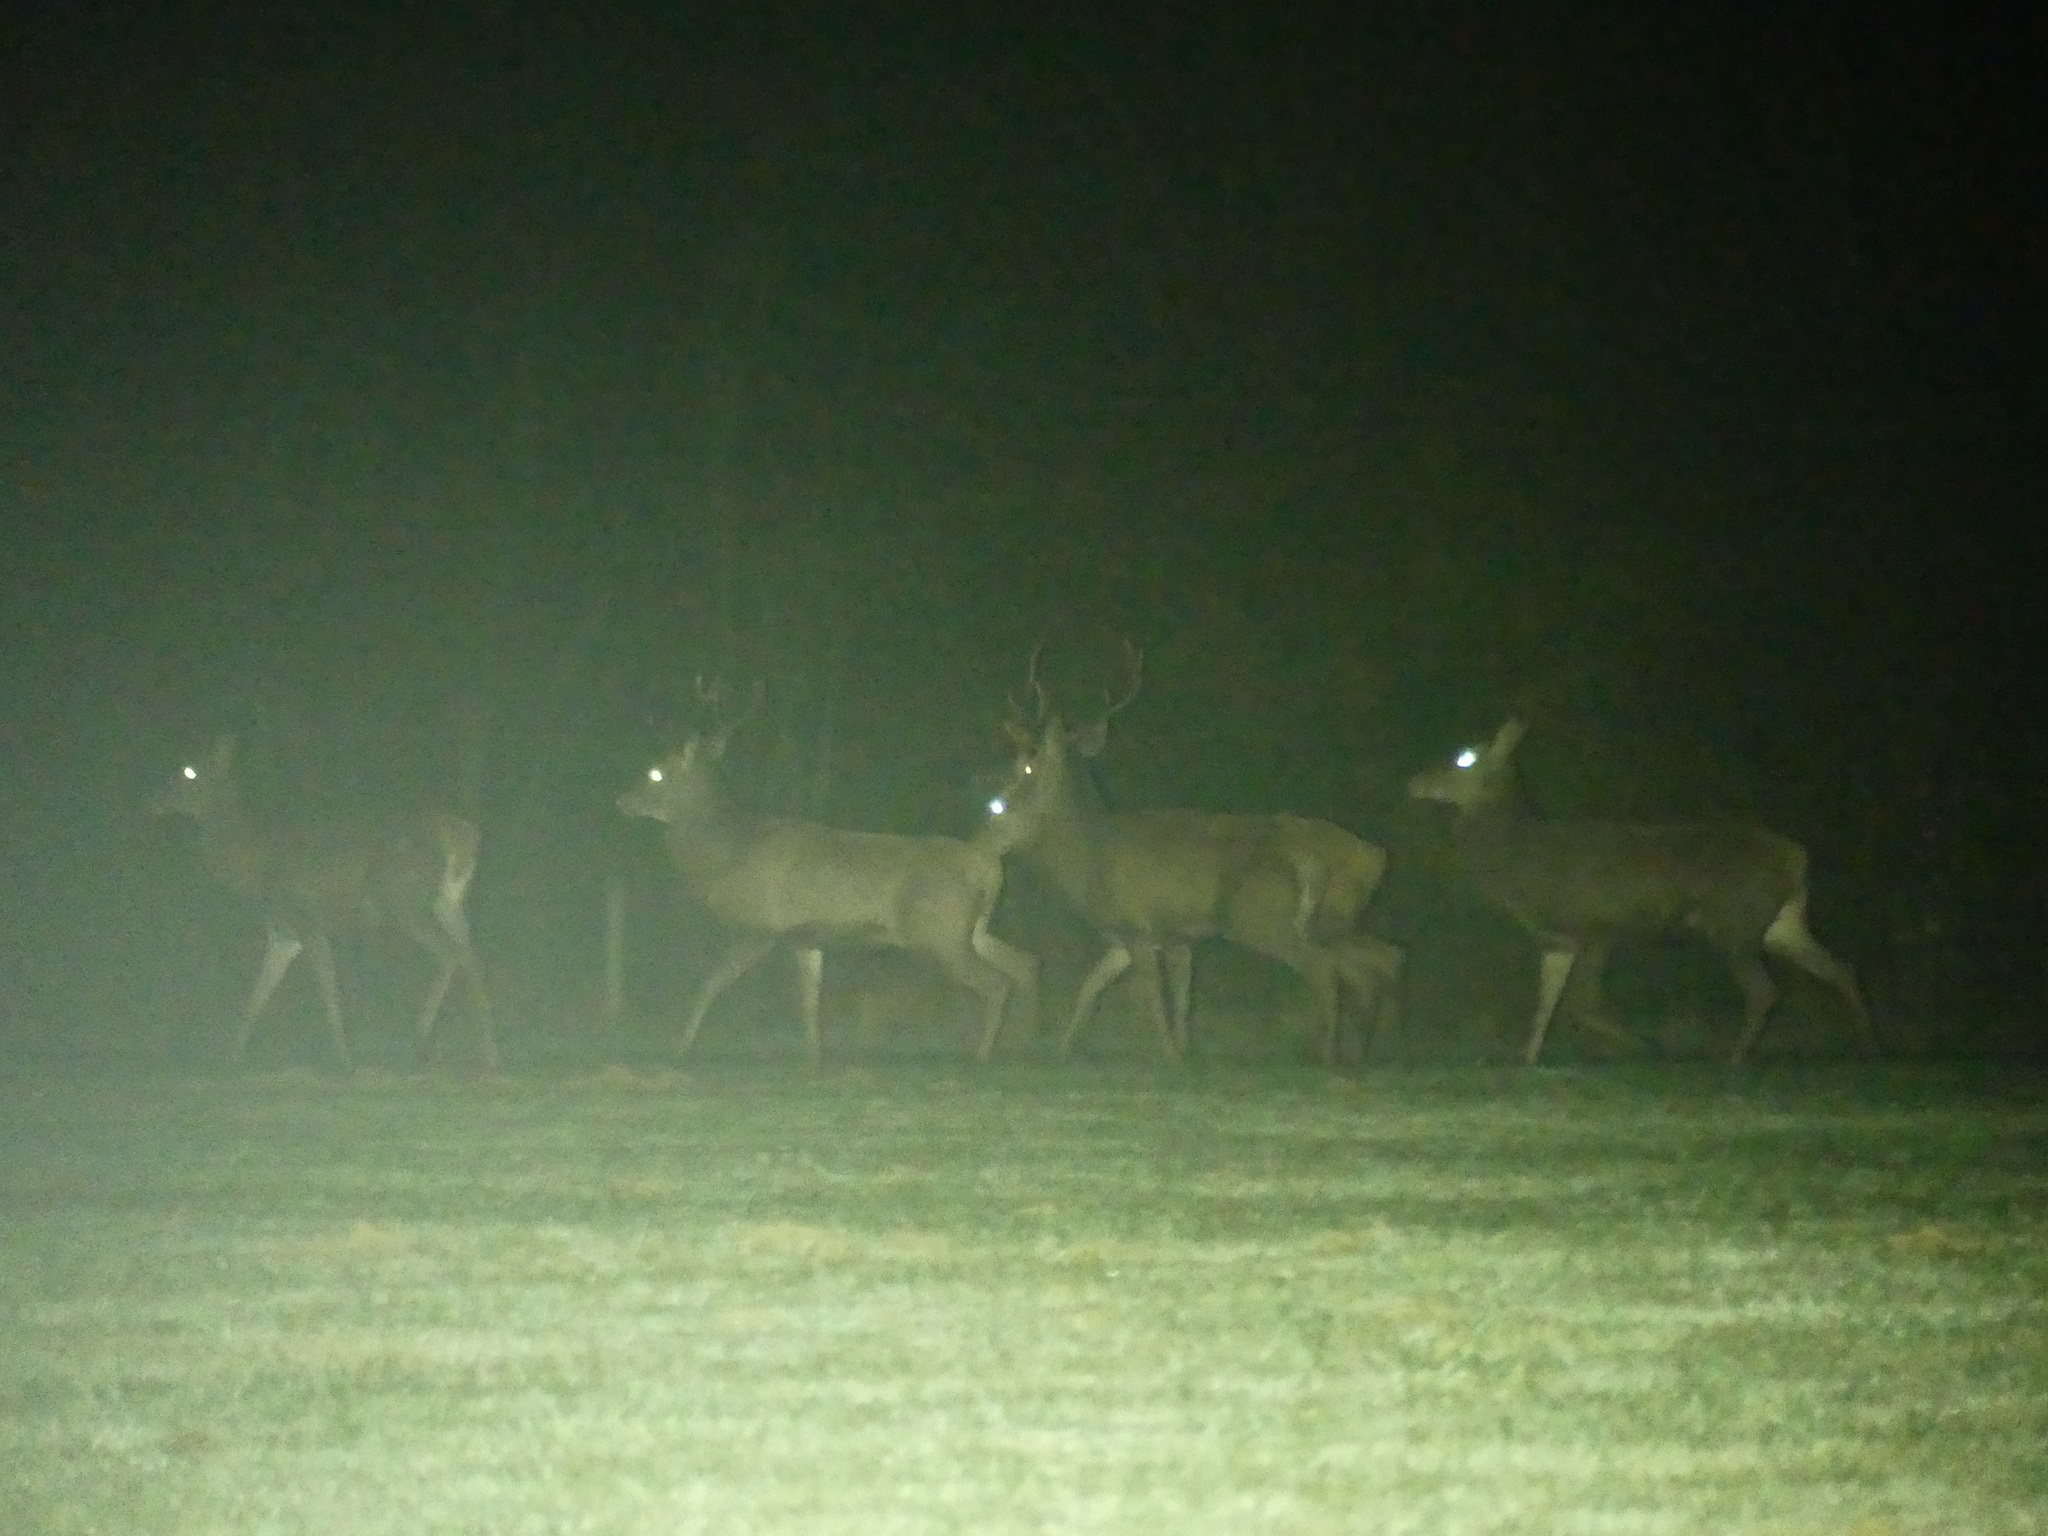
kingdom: Animalia
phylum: Chordata
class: Mammalia
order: Artiodactyla
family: Cervidae
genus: Cervus
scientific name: Cervus elaphus
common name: Red deer
